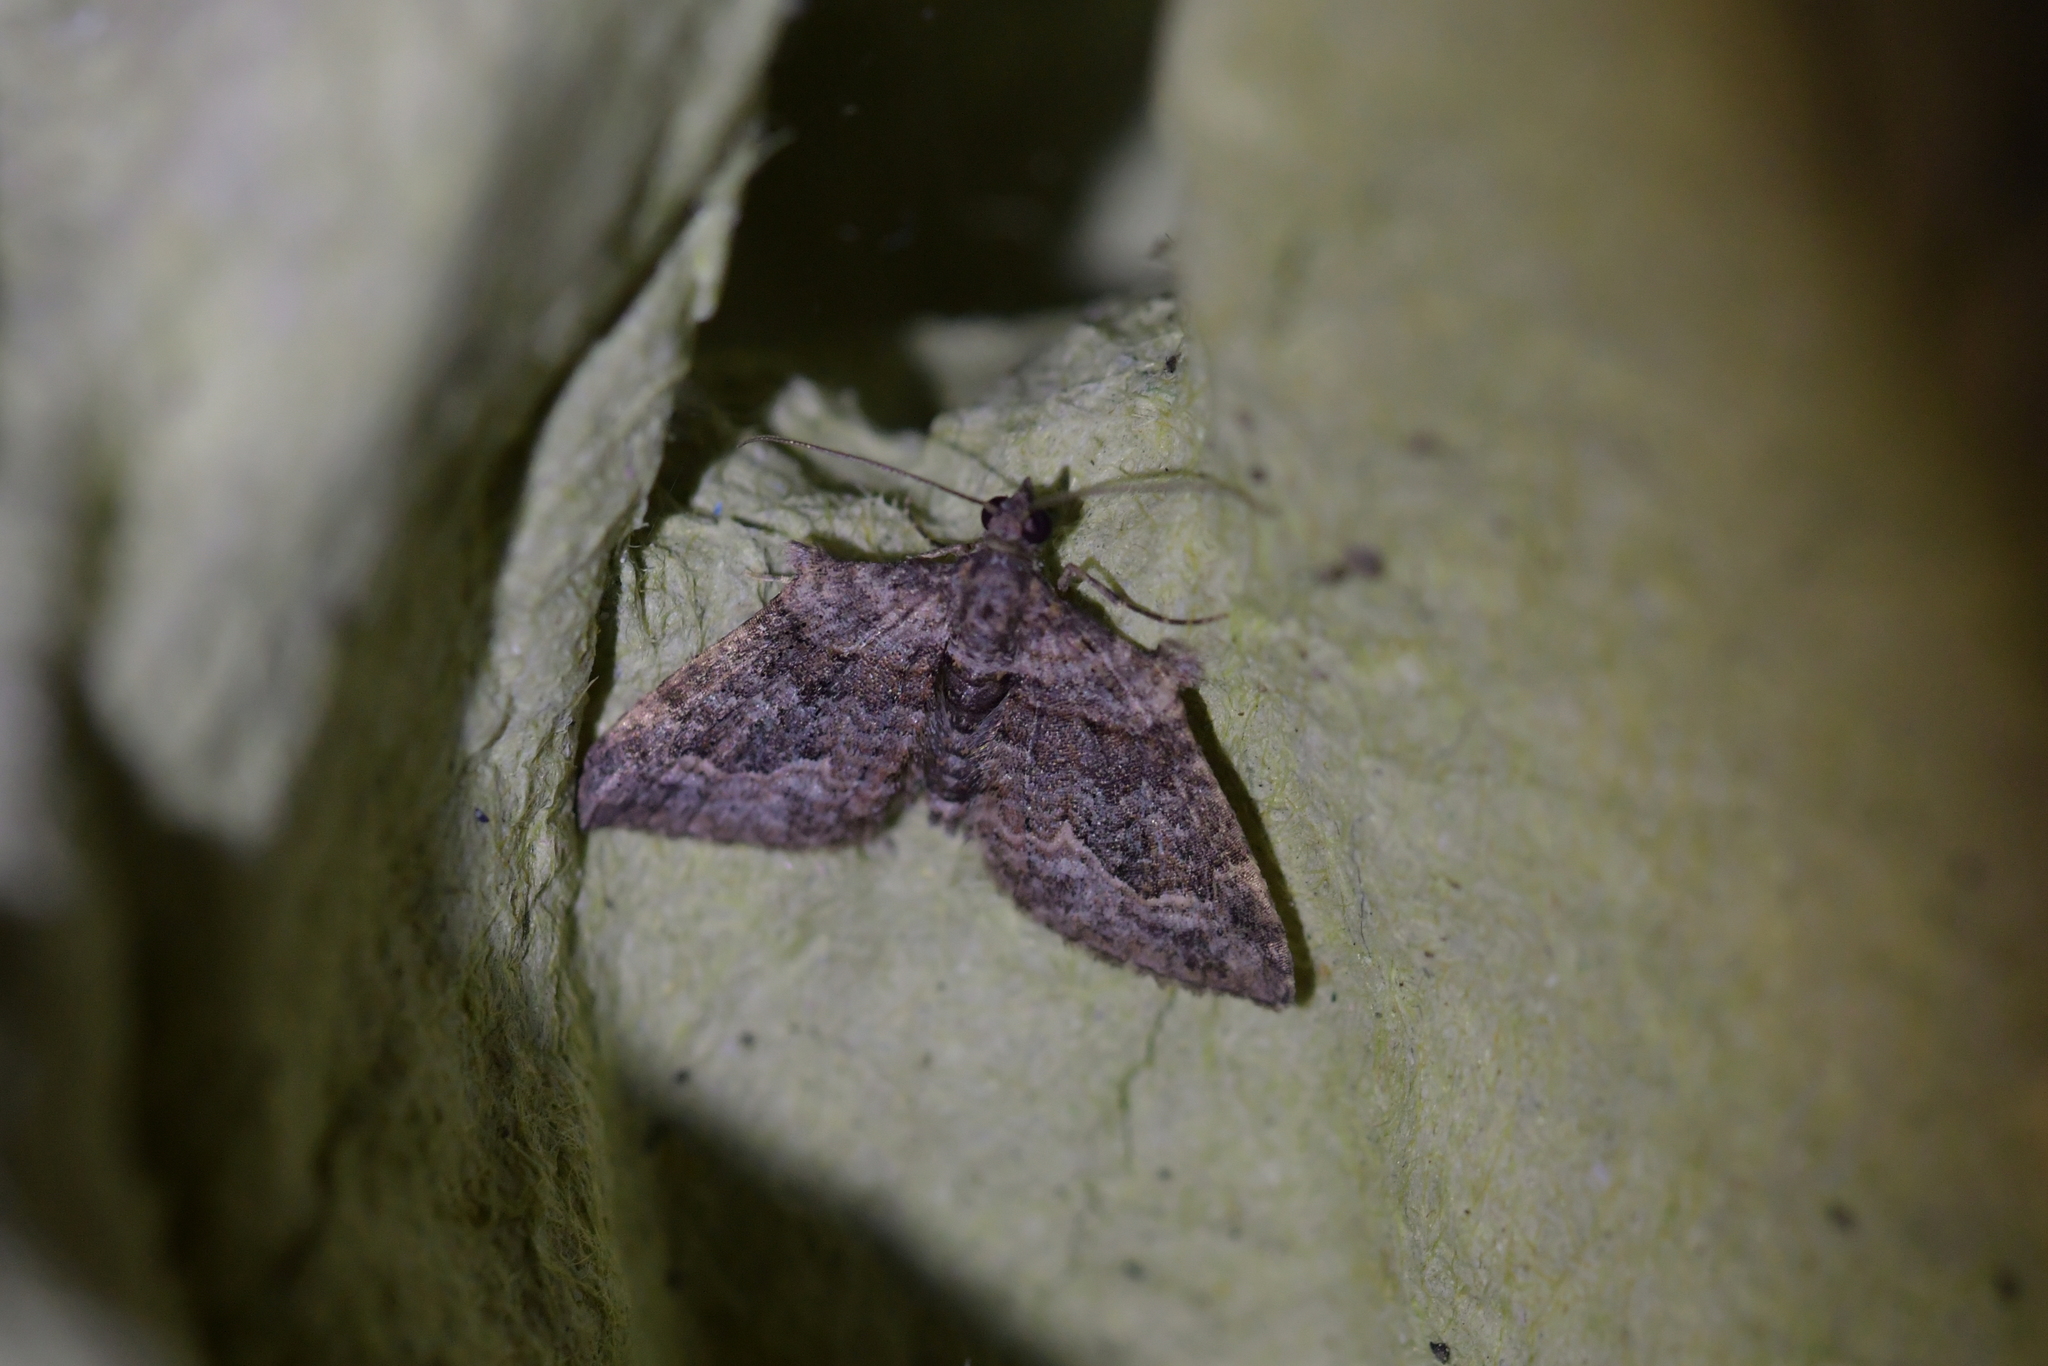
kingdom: Animalia
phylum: Arthropoda
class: Insecta
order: Lepidoptera
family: Geometridae
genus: Phrissogonus
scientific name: Phrissogonus laticostata
